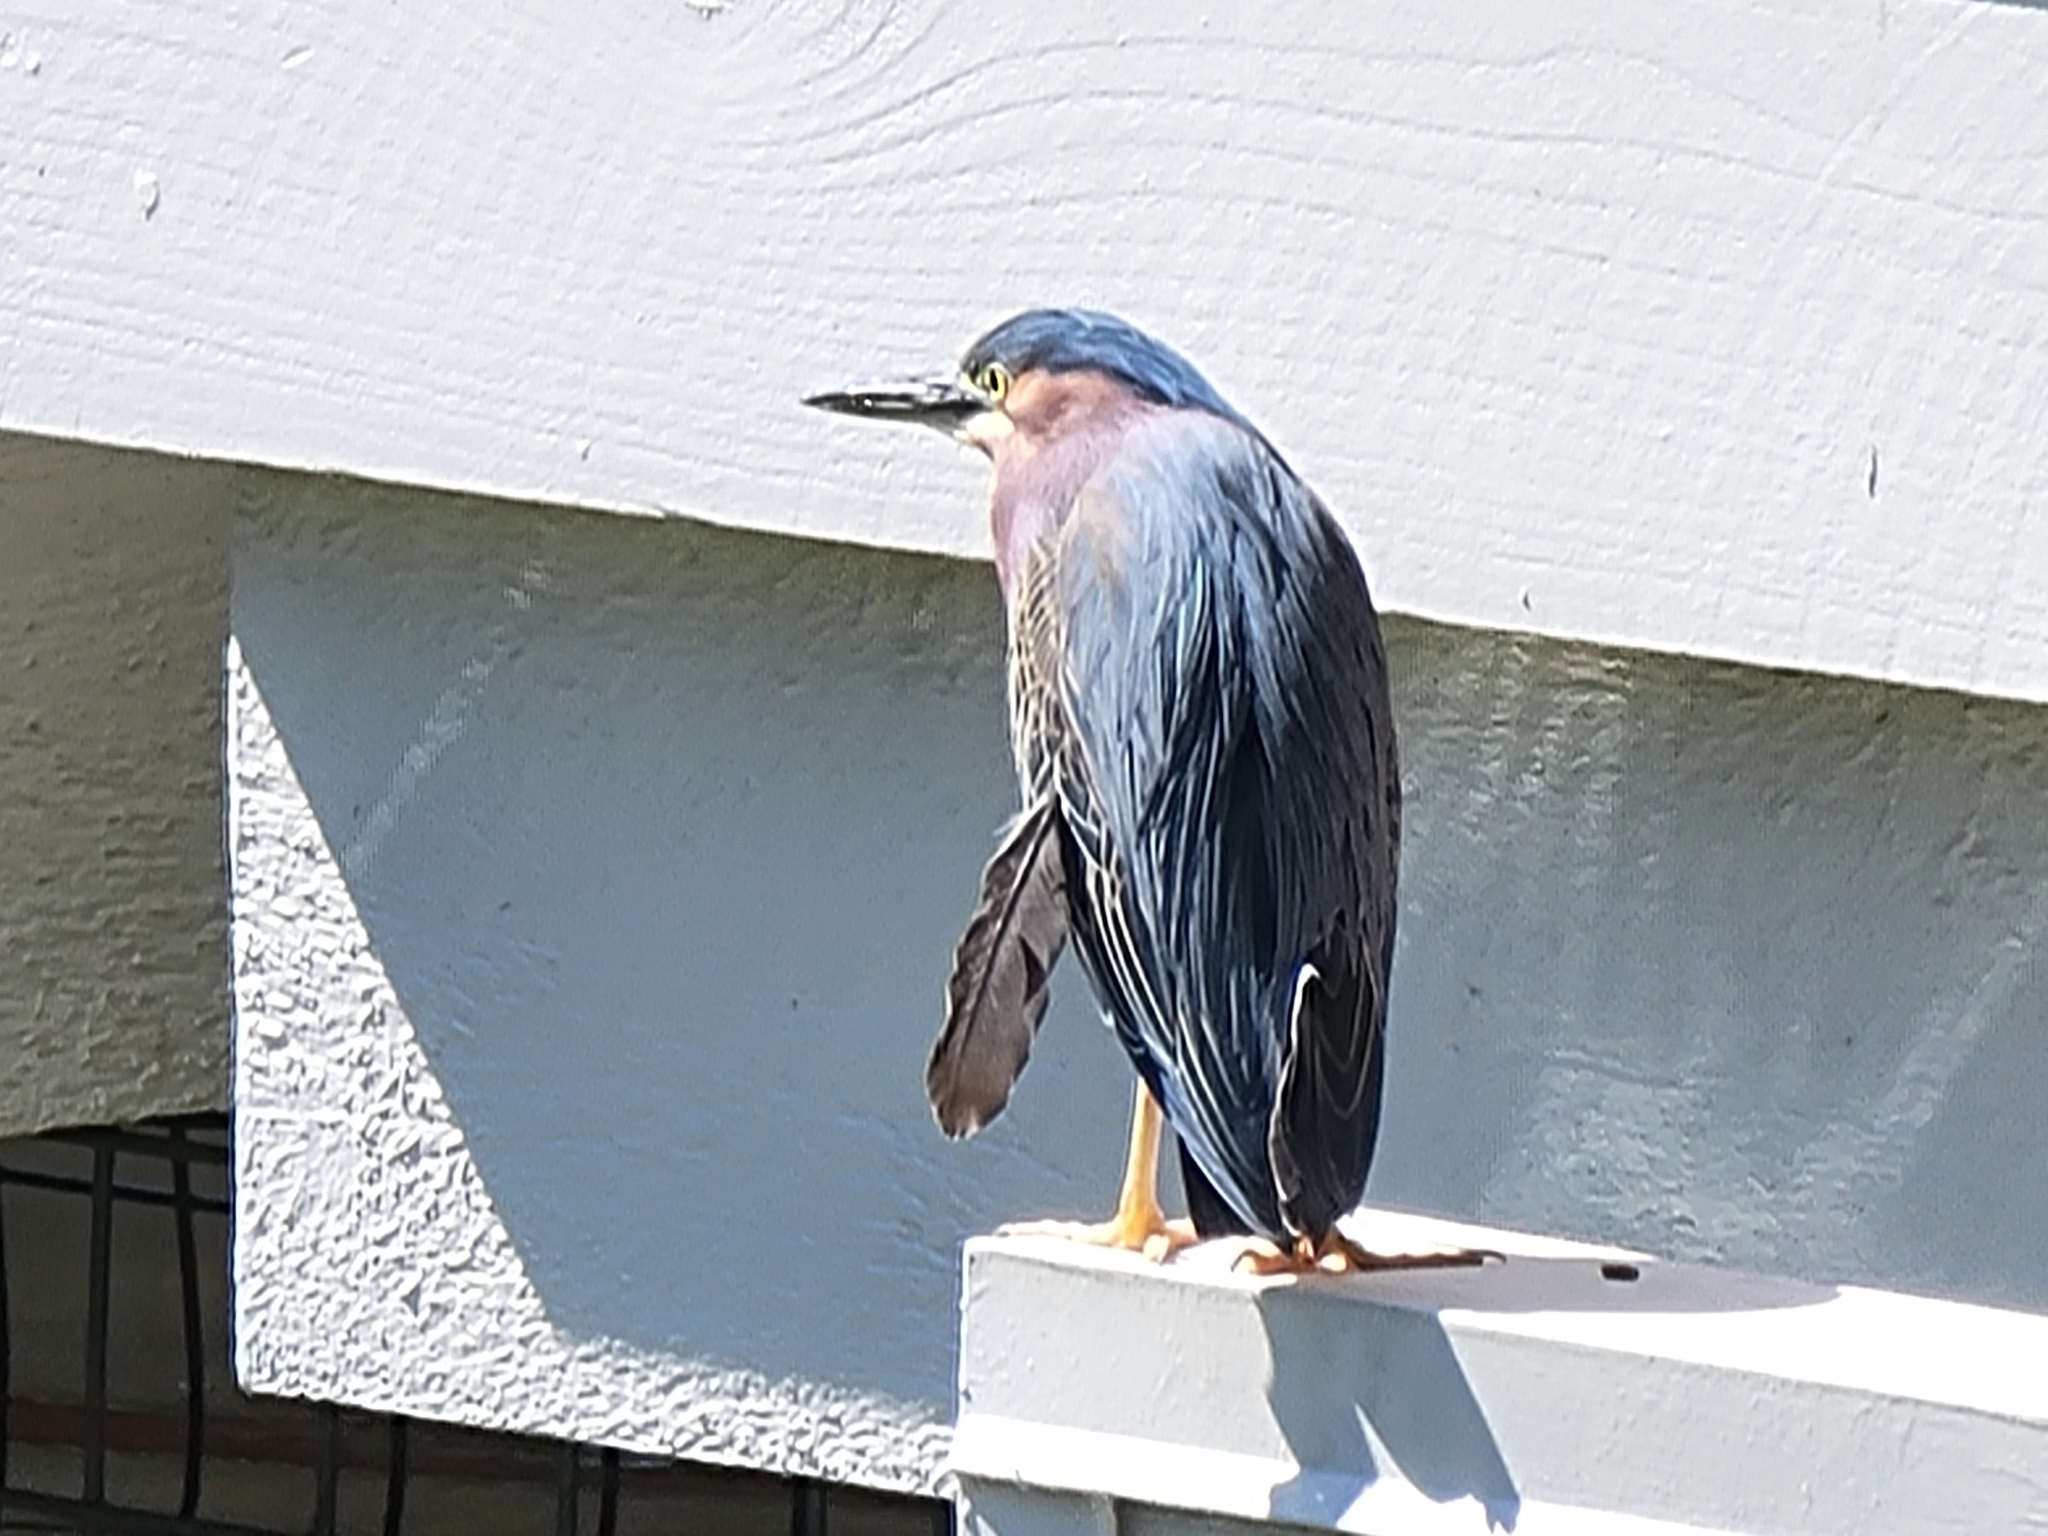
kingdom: Animalia
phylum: Chordata
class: Aves
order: Pelecaniformes
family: Ardeidae
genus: Butorides
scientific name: Butorides virescens
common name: Green heron
